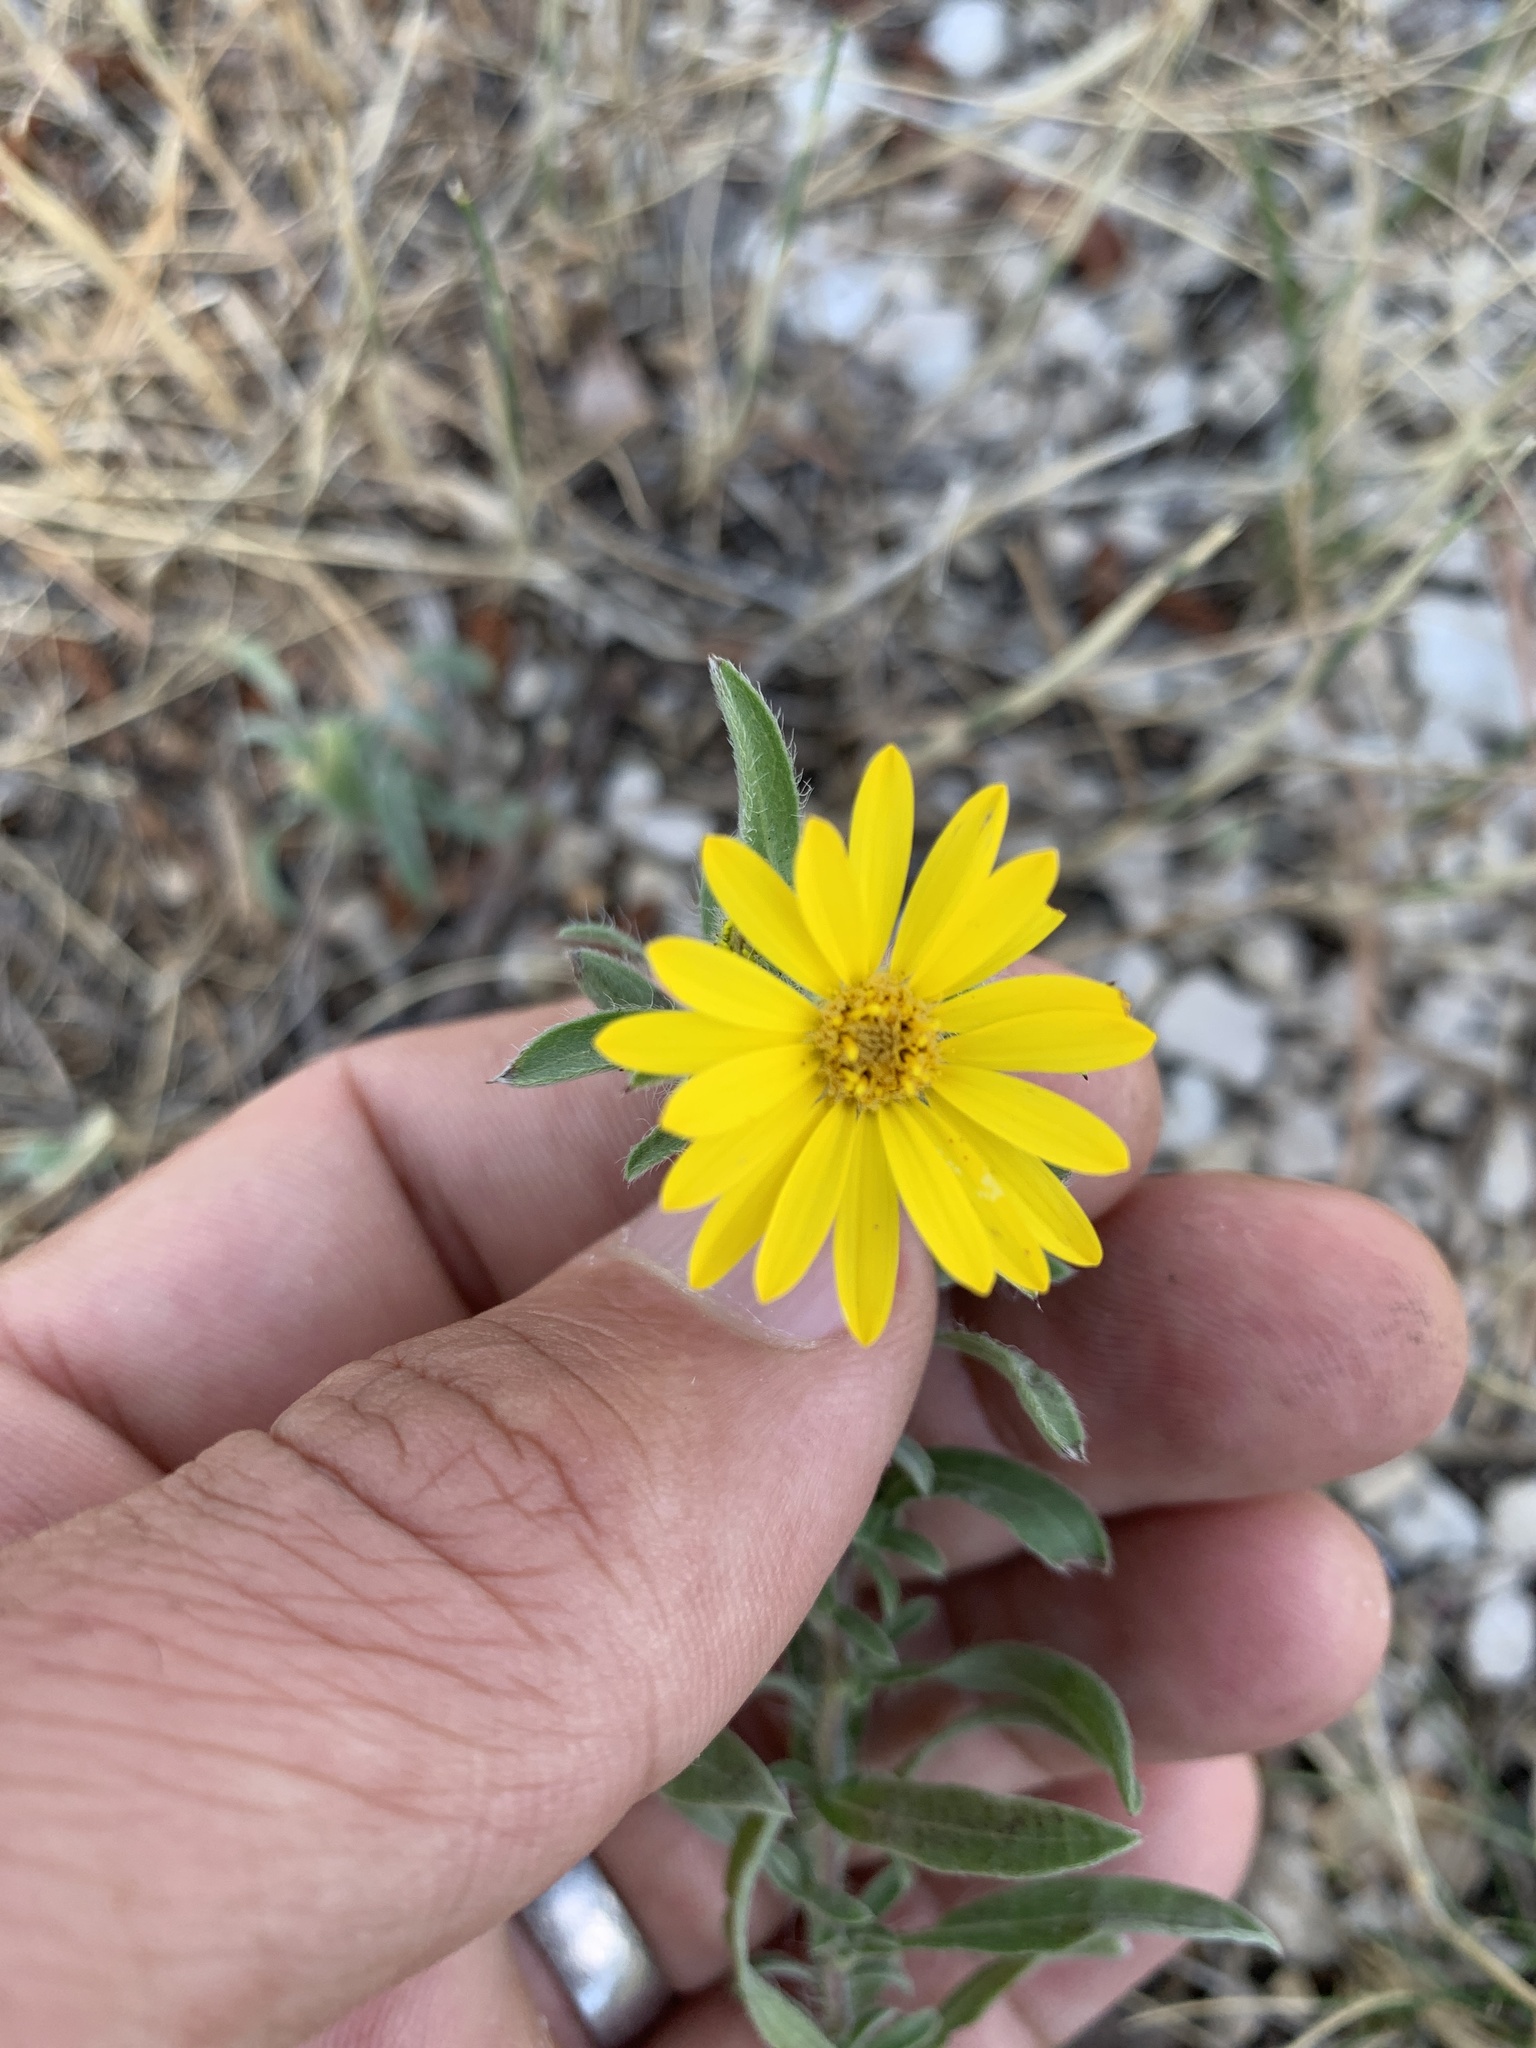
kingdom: Plantae
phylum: Tracheophyta
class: Magnoliopsida
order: Asterales
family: Asteraceae
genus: Heterotheca
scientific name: Heterotheca villosa
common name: Hairy false goldenaster
